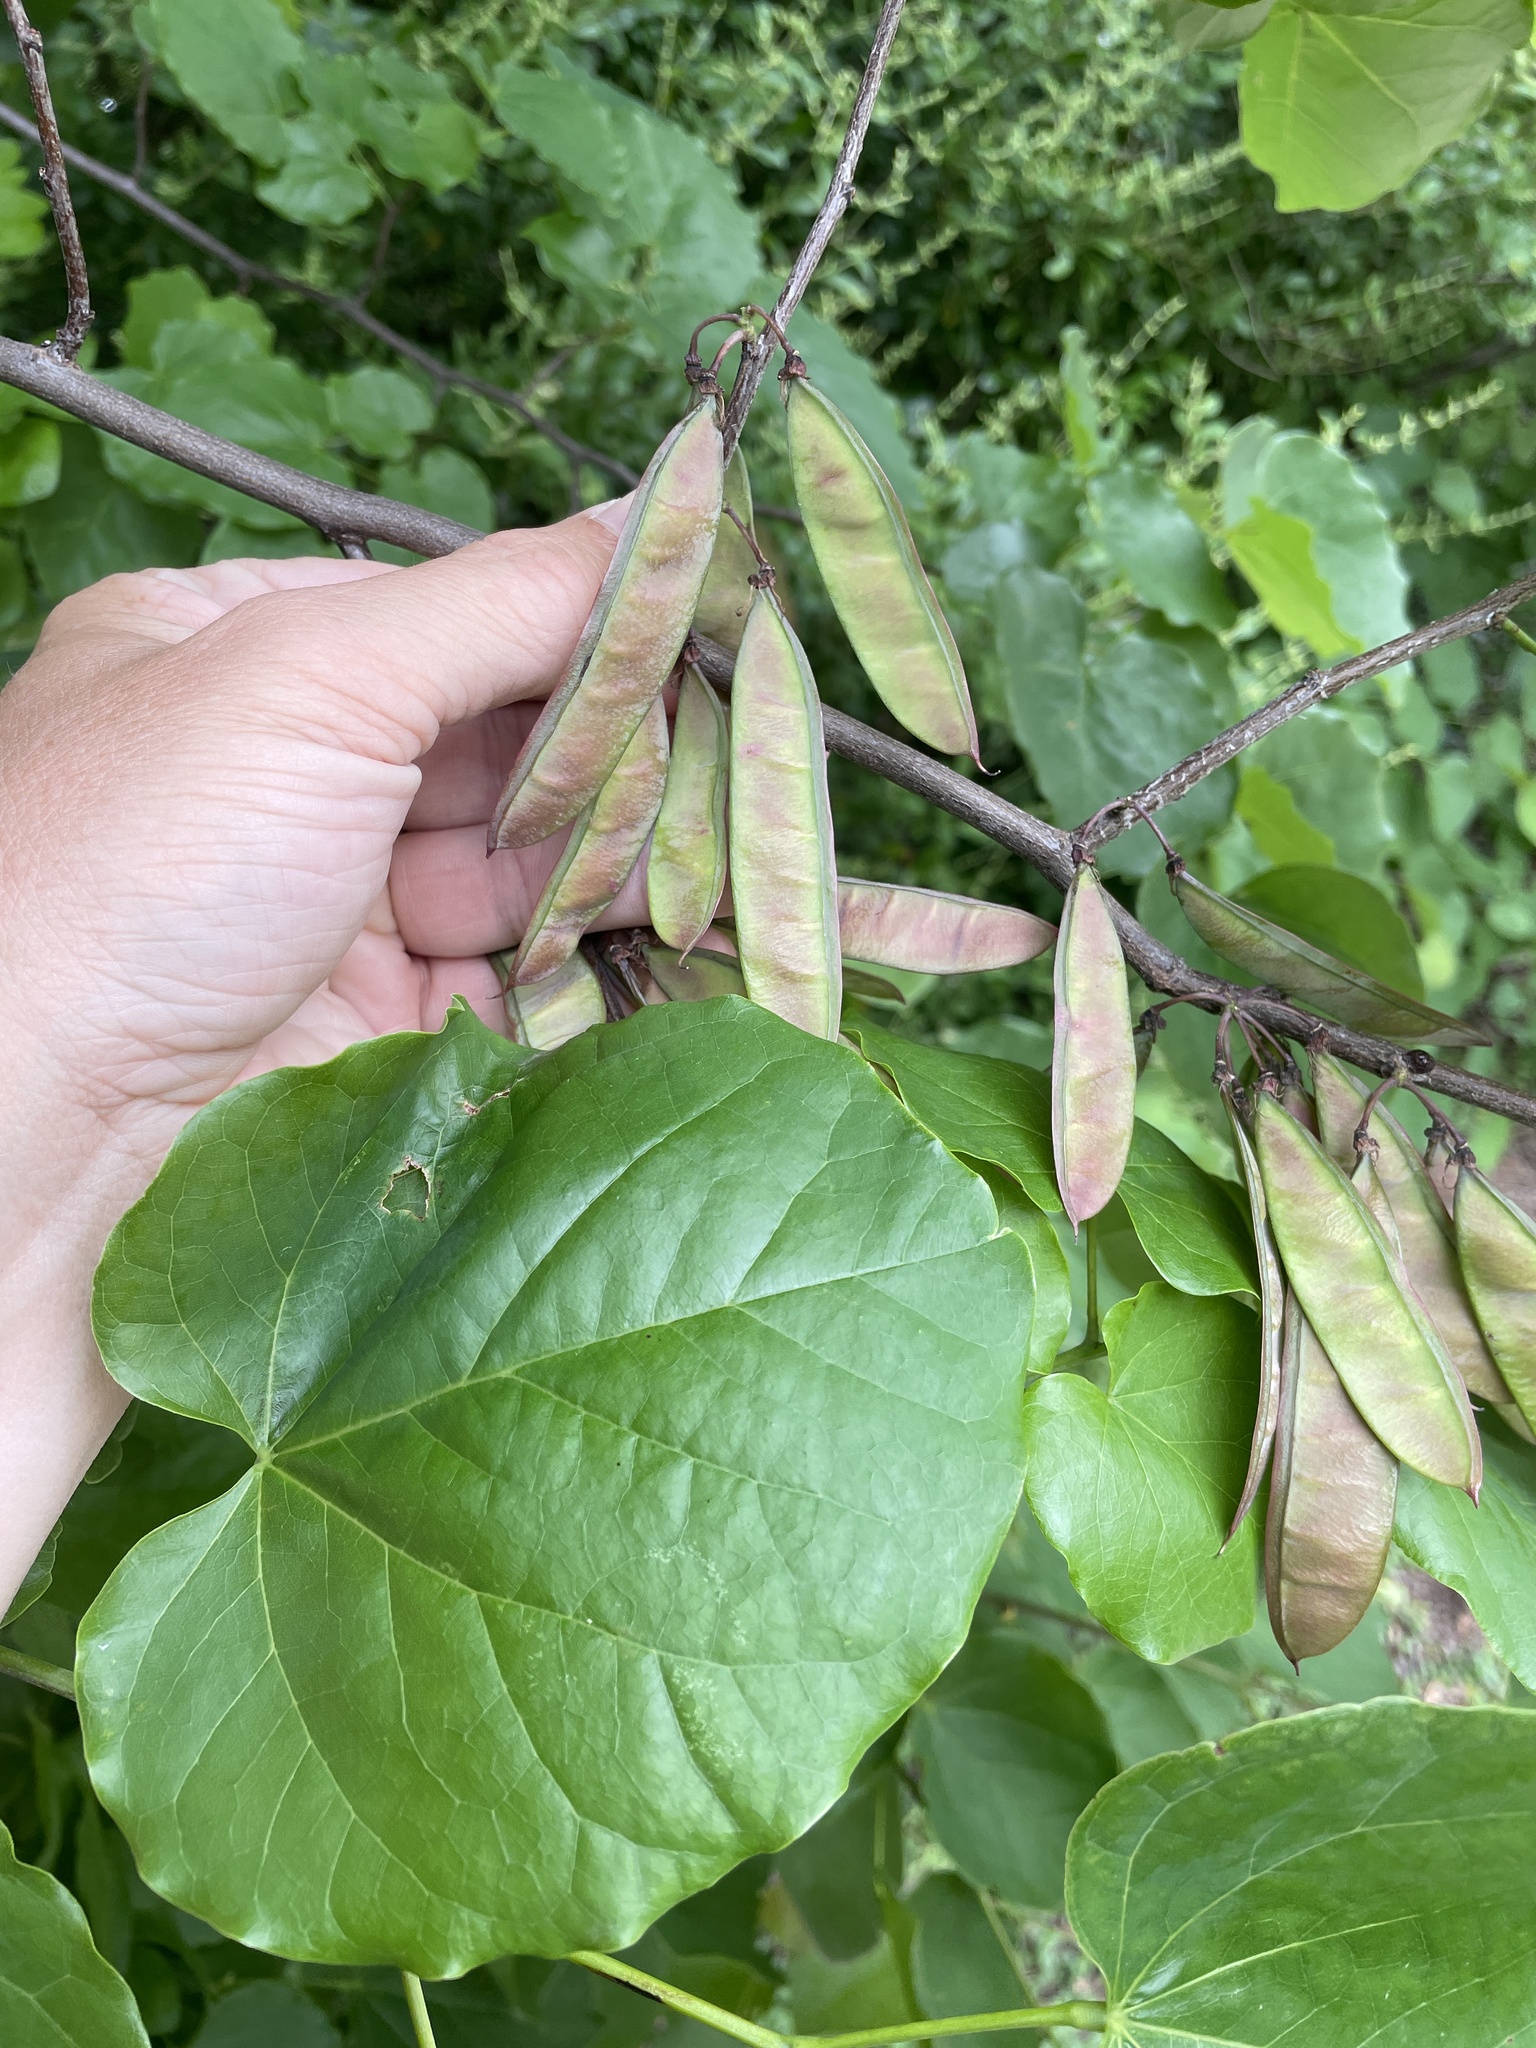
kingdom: Plantae
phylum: Tracheophyta
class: Magnoliopsida
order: Fabales
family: Fabaceae
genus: Cercis
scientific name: Cercis canadensis
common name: Eastern redbud
